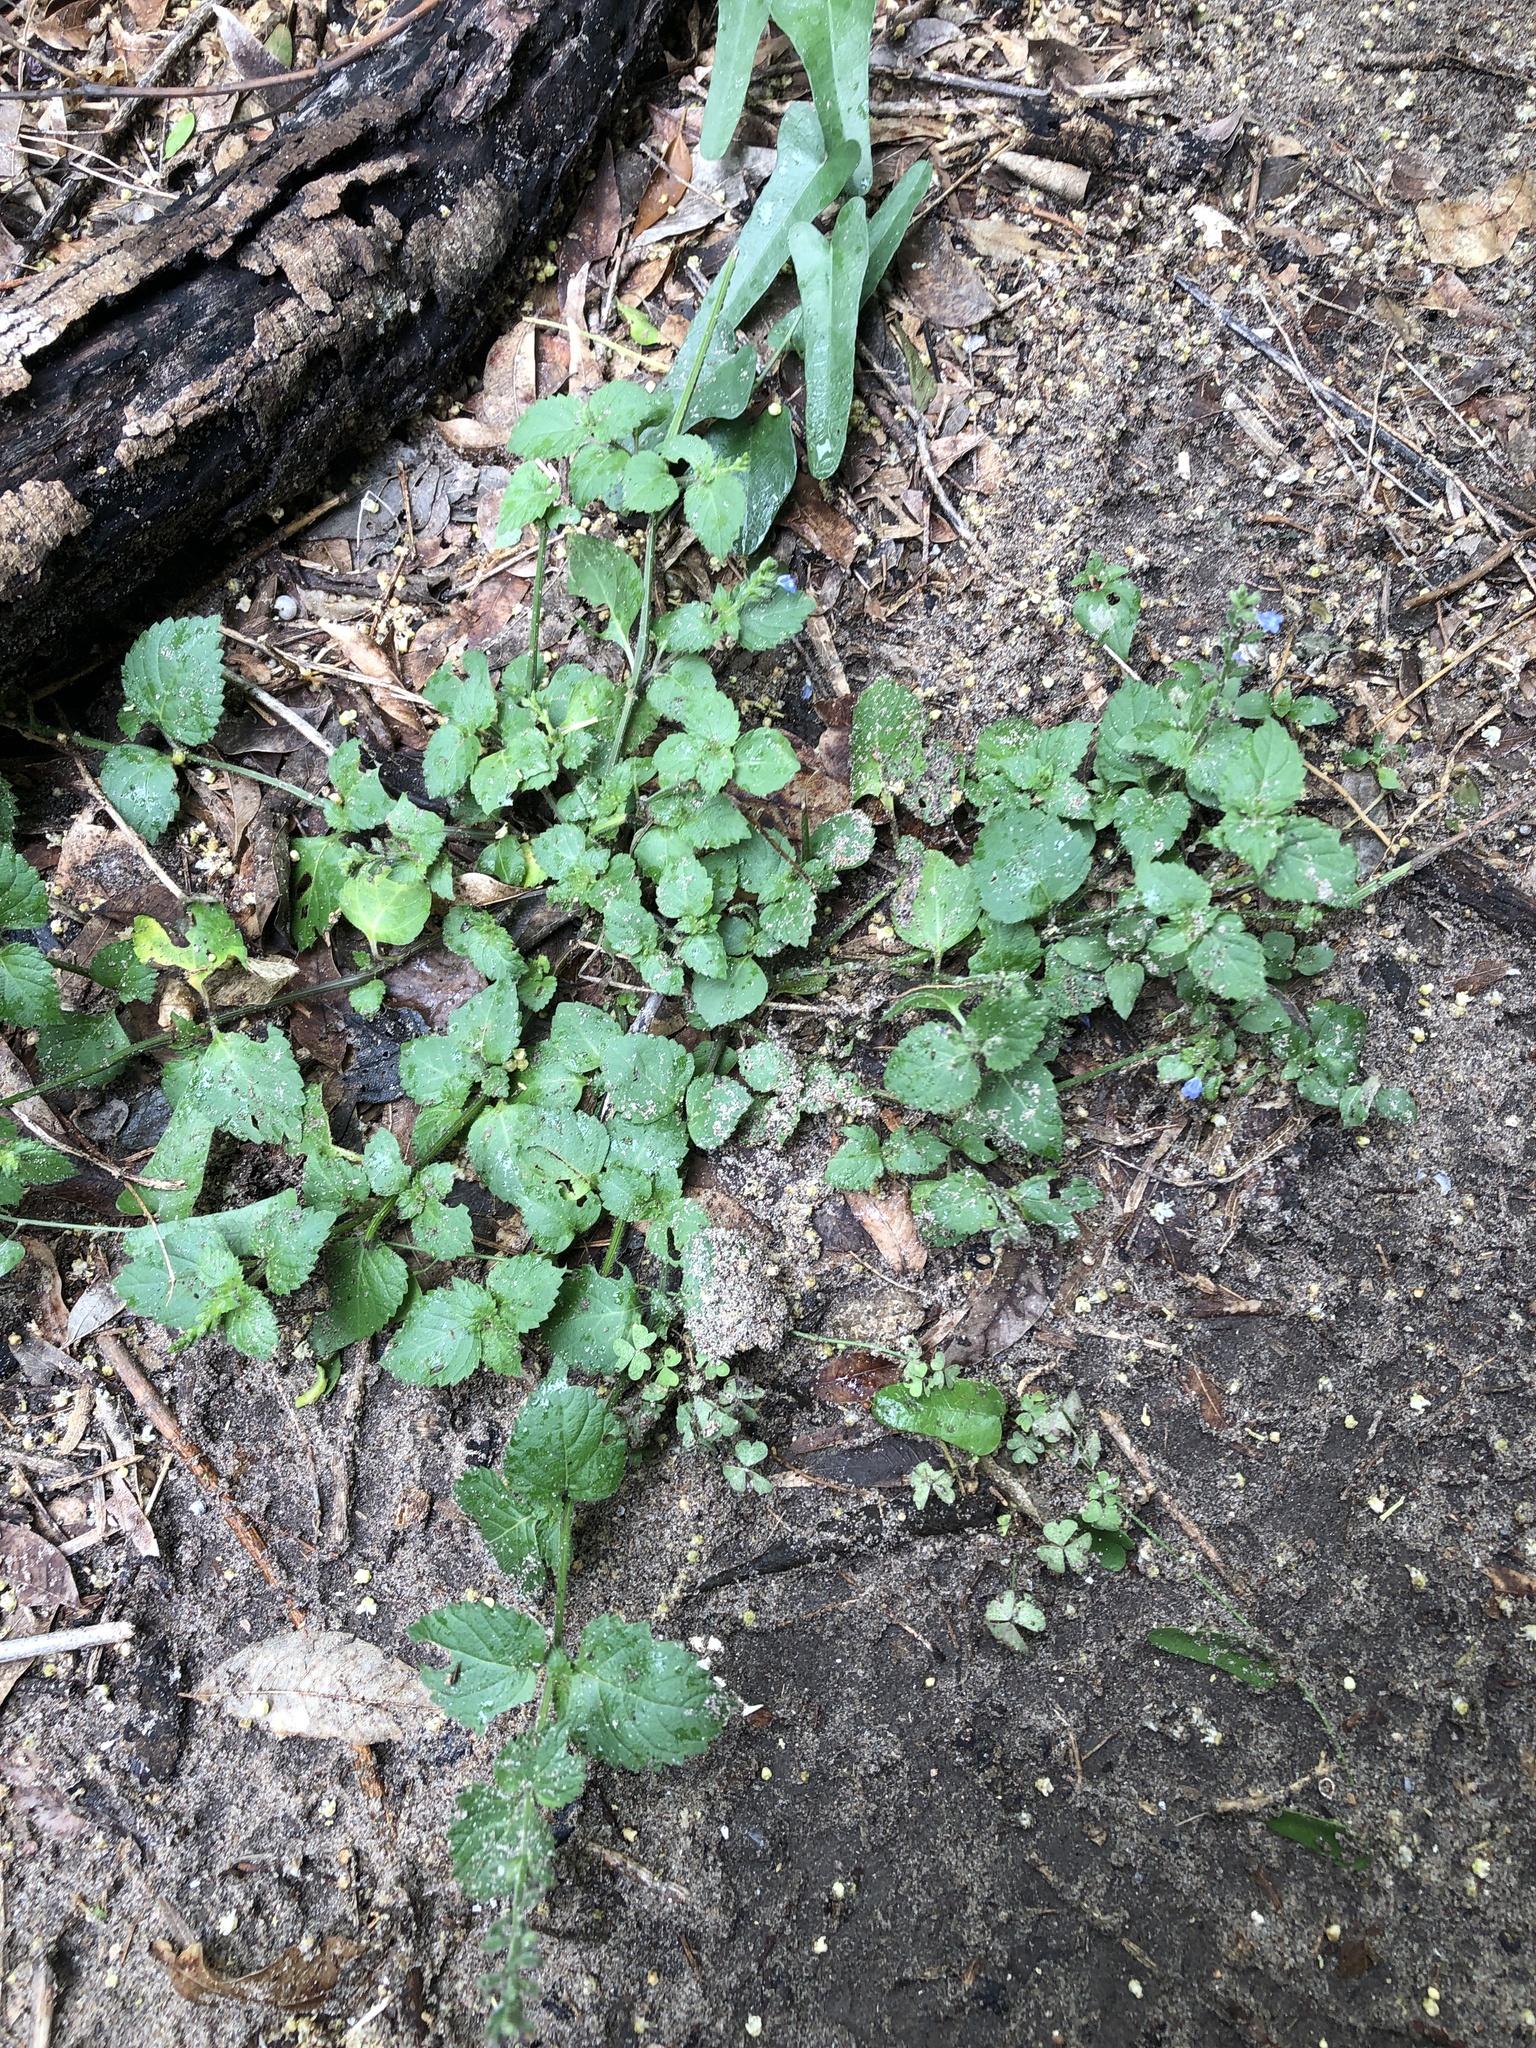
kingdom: Plantae
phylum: Tracheophyta
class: Magnoliopsida
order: Lamiales
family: Lamiaceae
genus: Salvia
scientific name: Salvia misella
